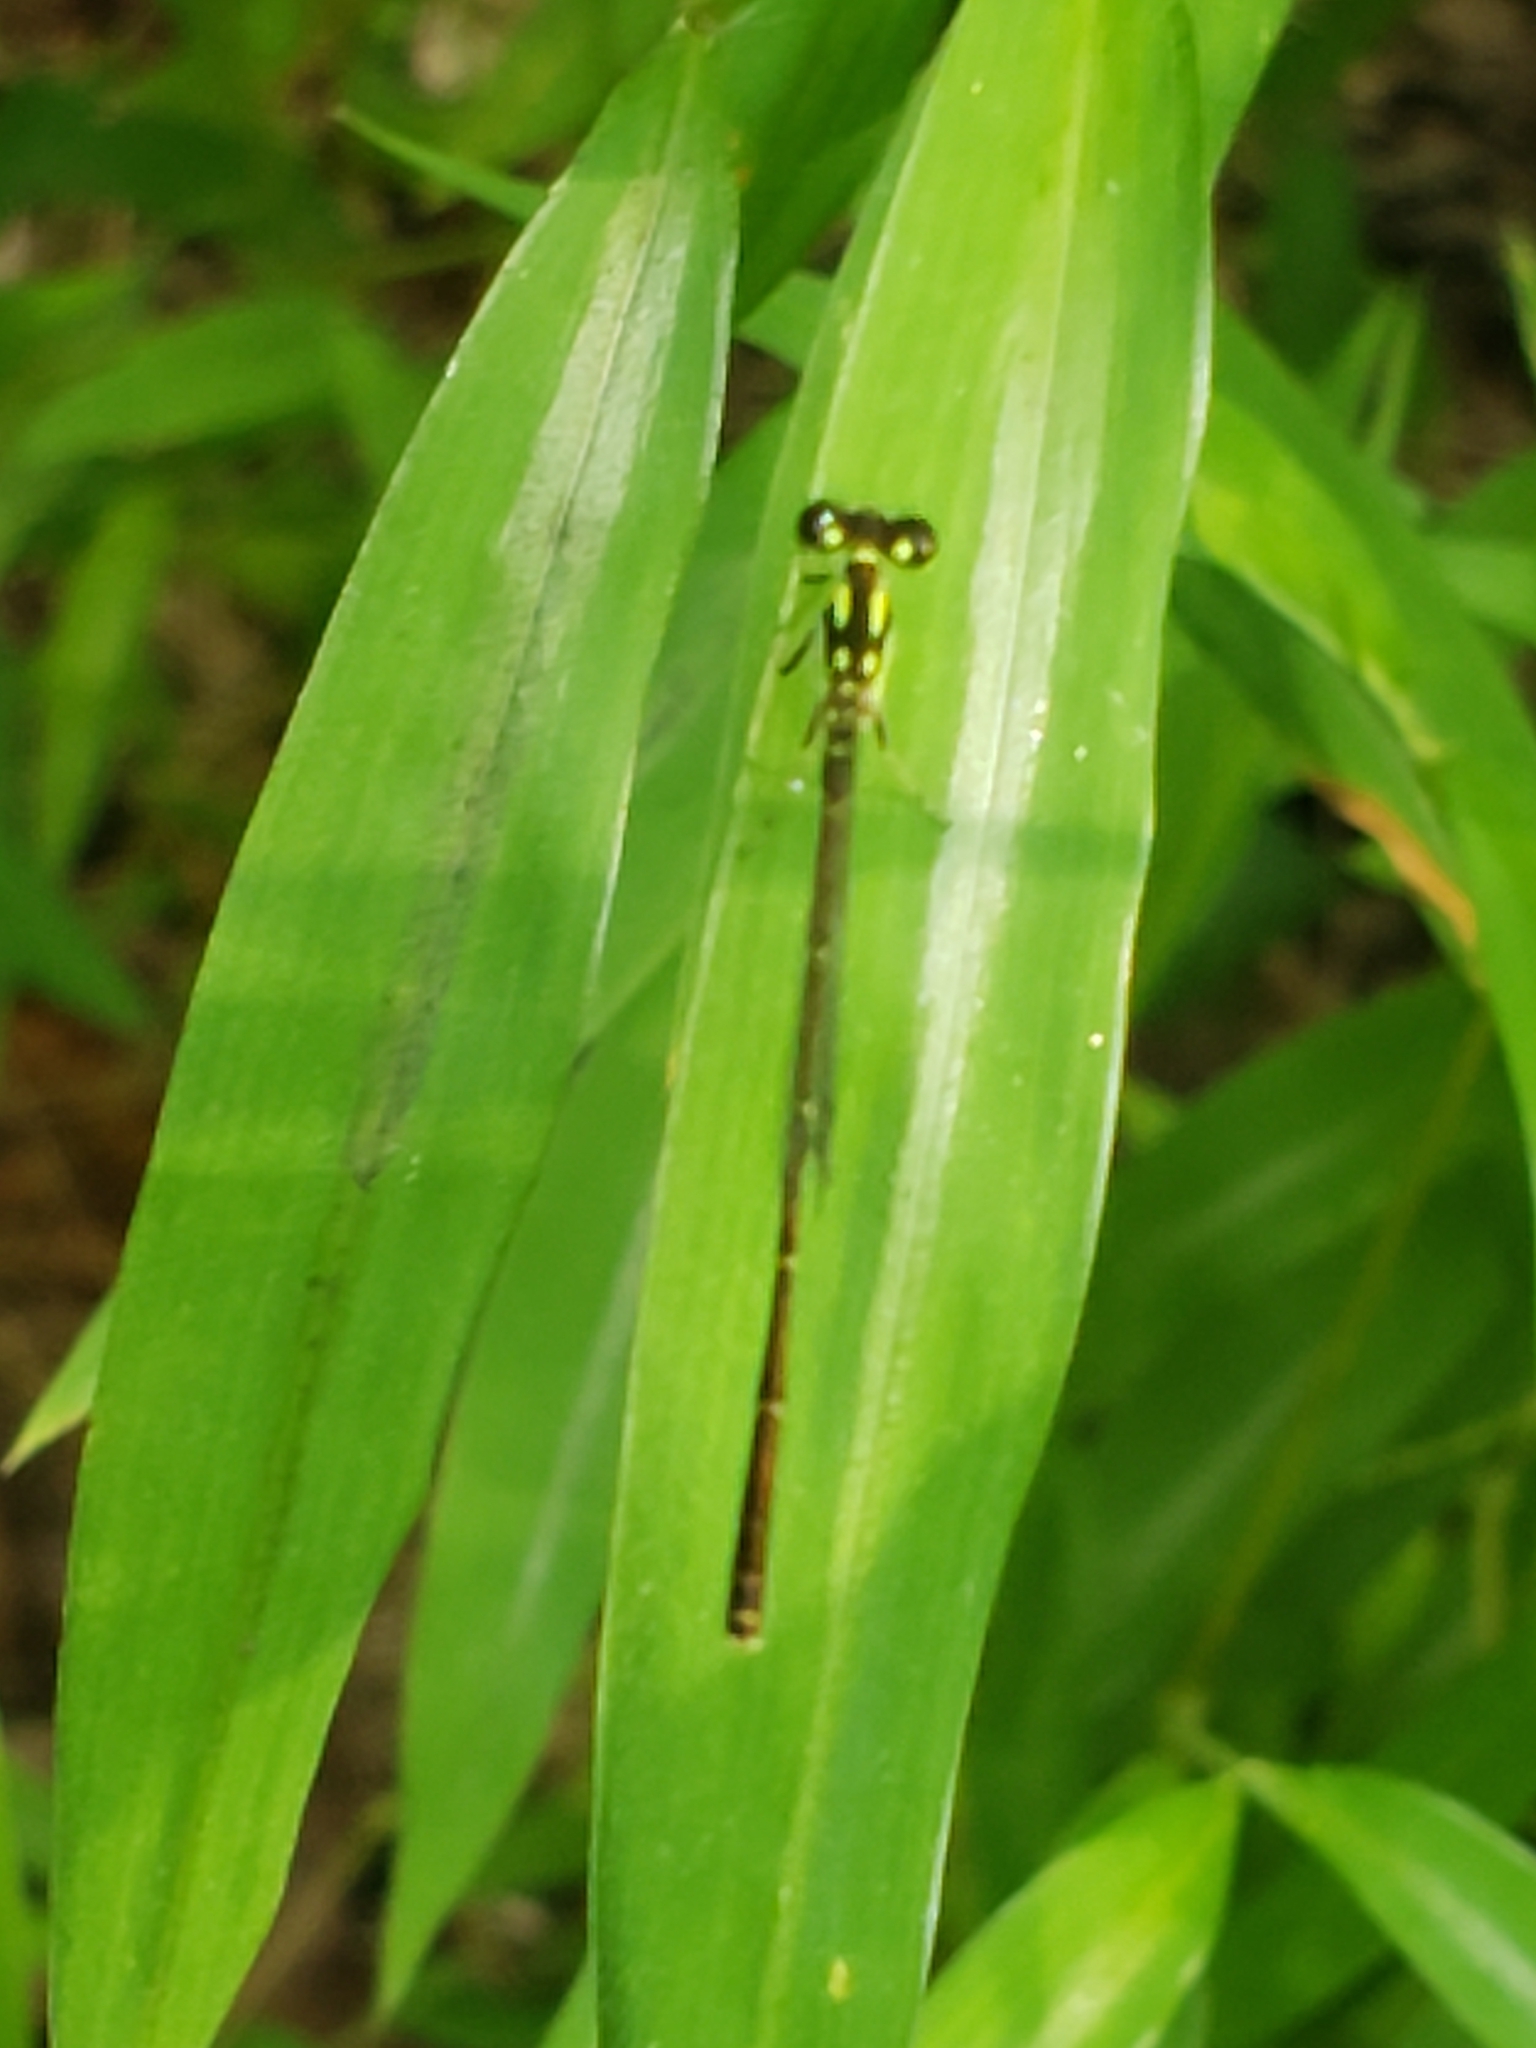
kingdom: Animalia
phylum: Arthropoda
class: Insecta
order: Odonata
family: Coenagrionidae
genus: Ischnura
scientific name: Ischnura posita
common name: Fragile forktail
